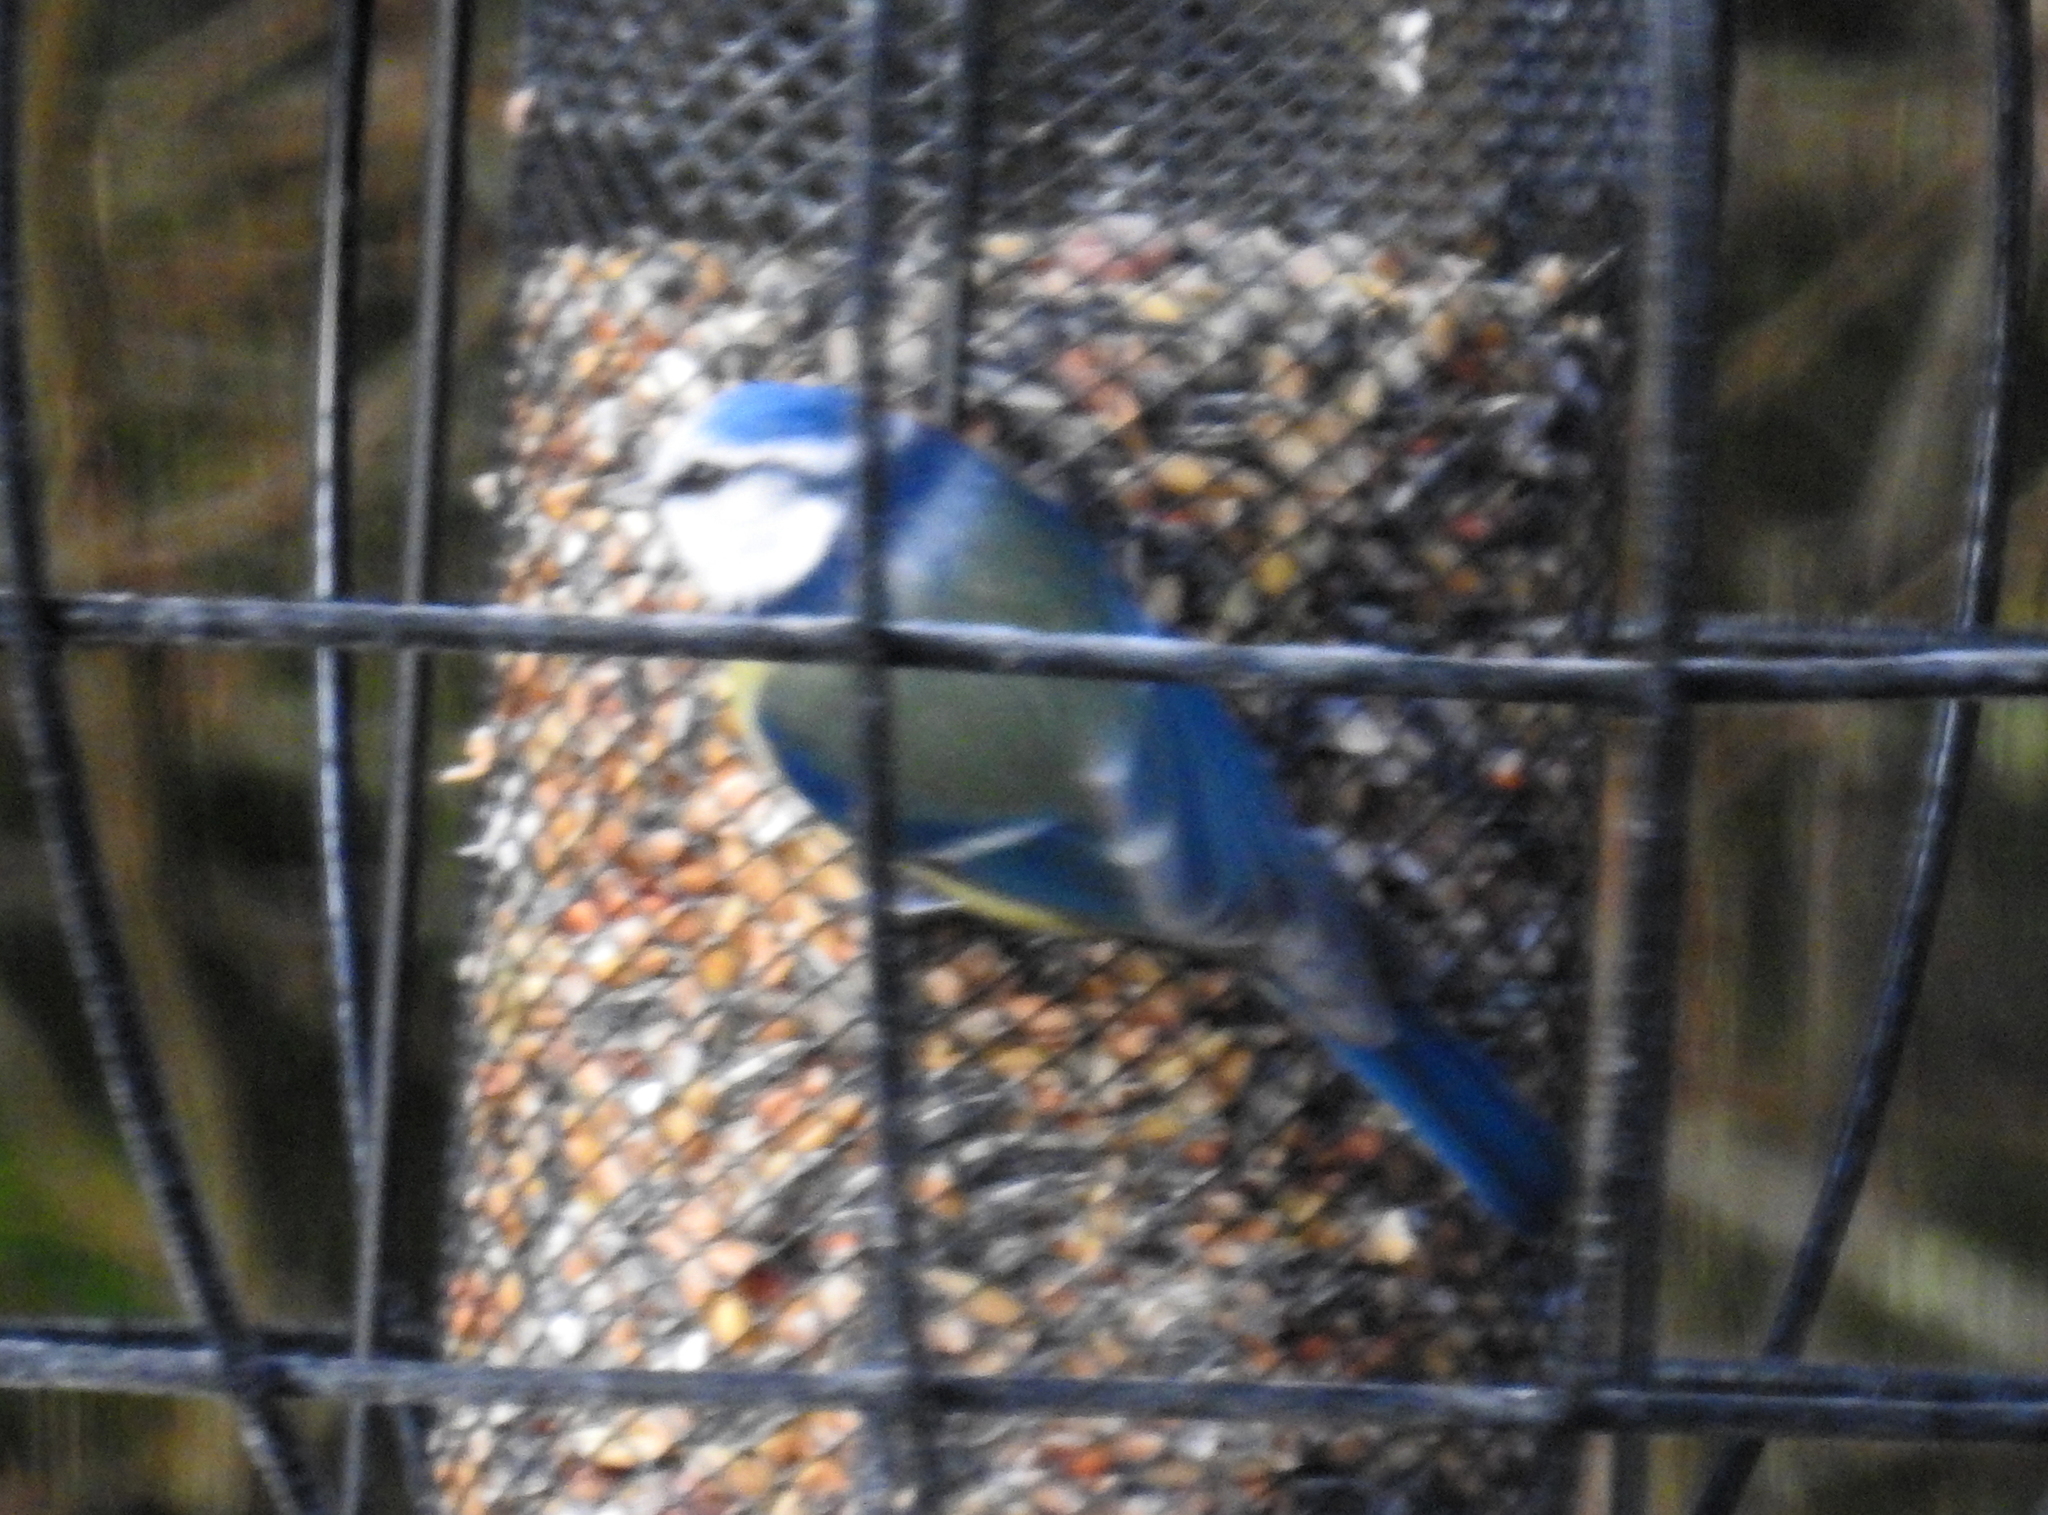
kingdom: Animalia
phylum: Chordata
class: Aves
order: Passeriformes
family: Paridae
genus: Cyanistes
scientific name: Cyanistes caeruleus
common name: Eurasian blue tit
